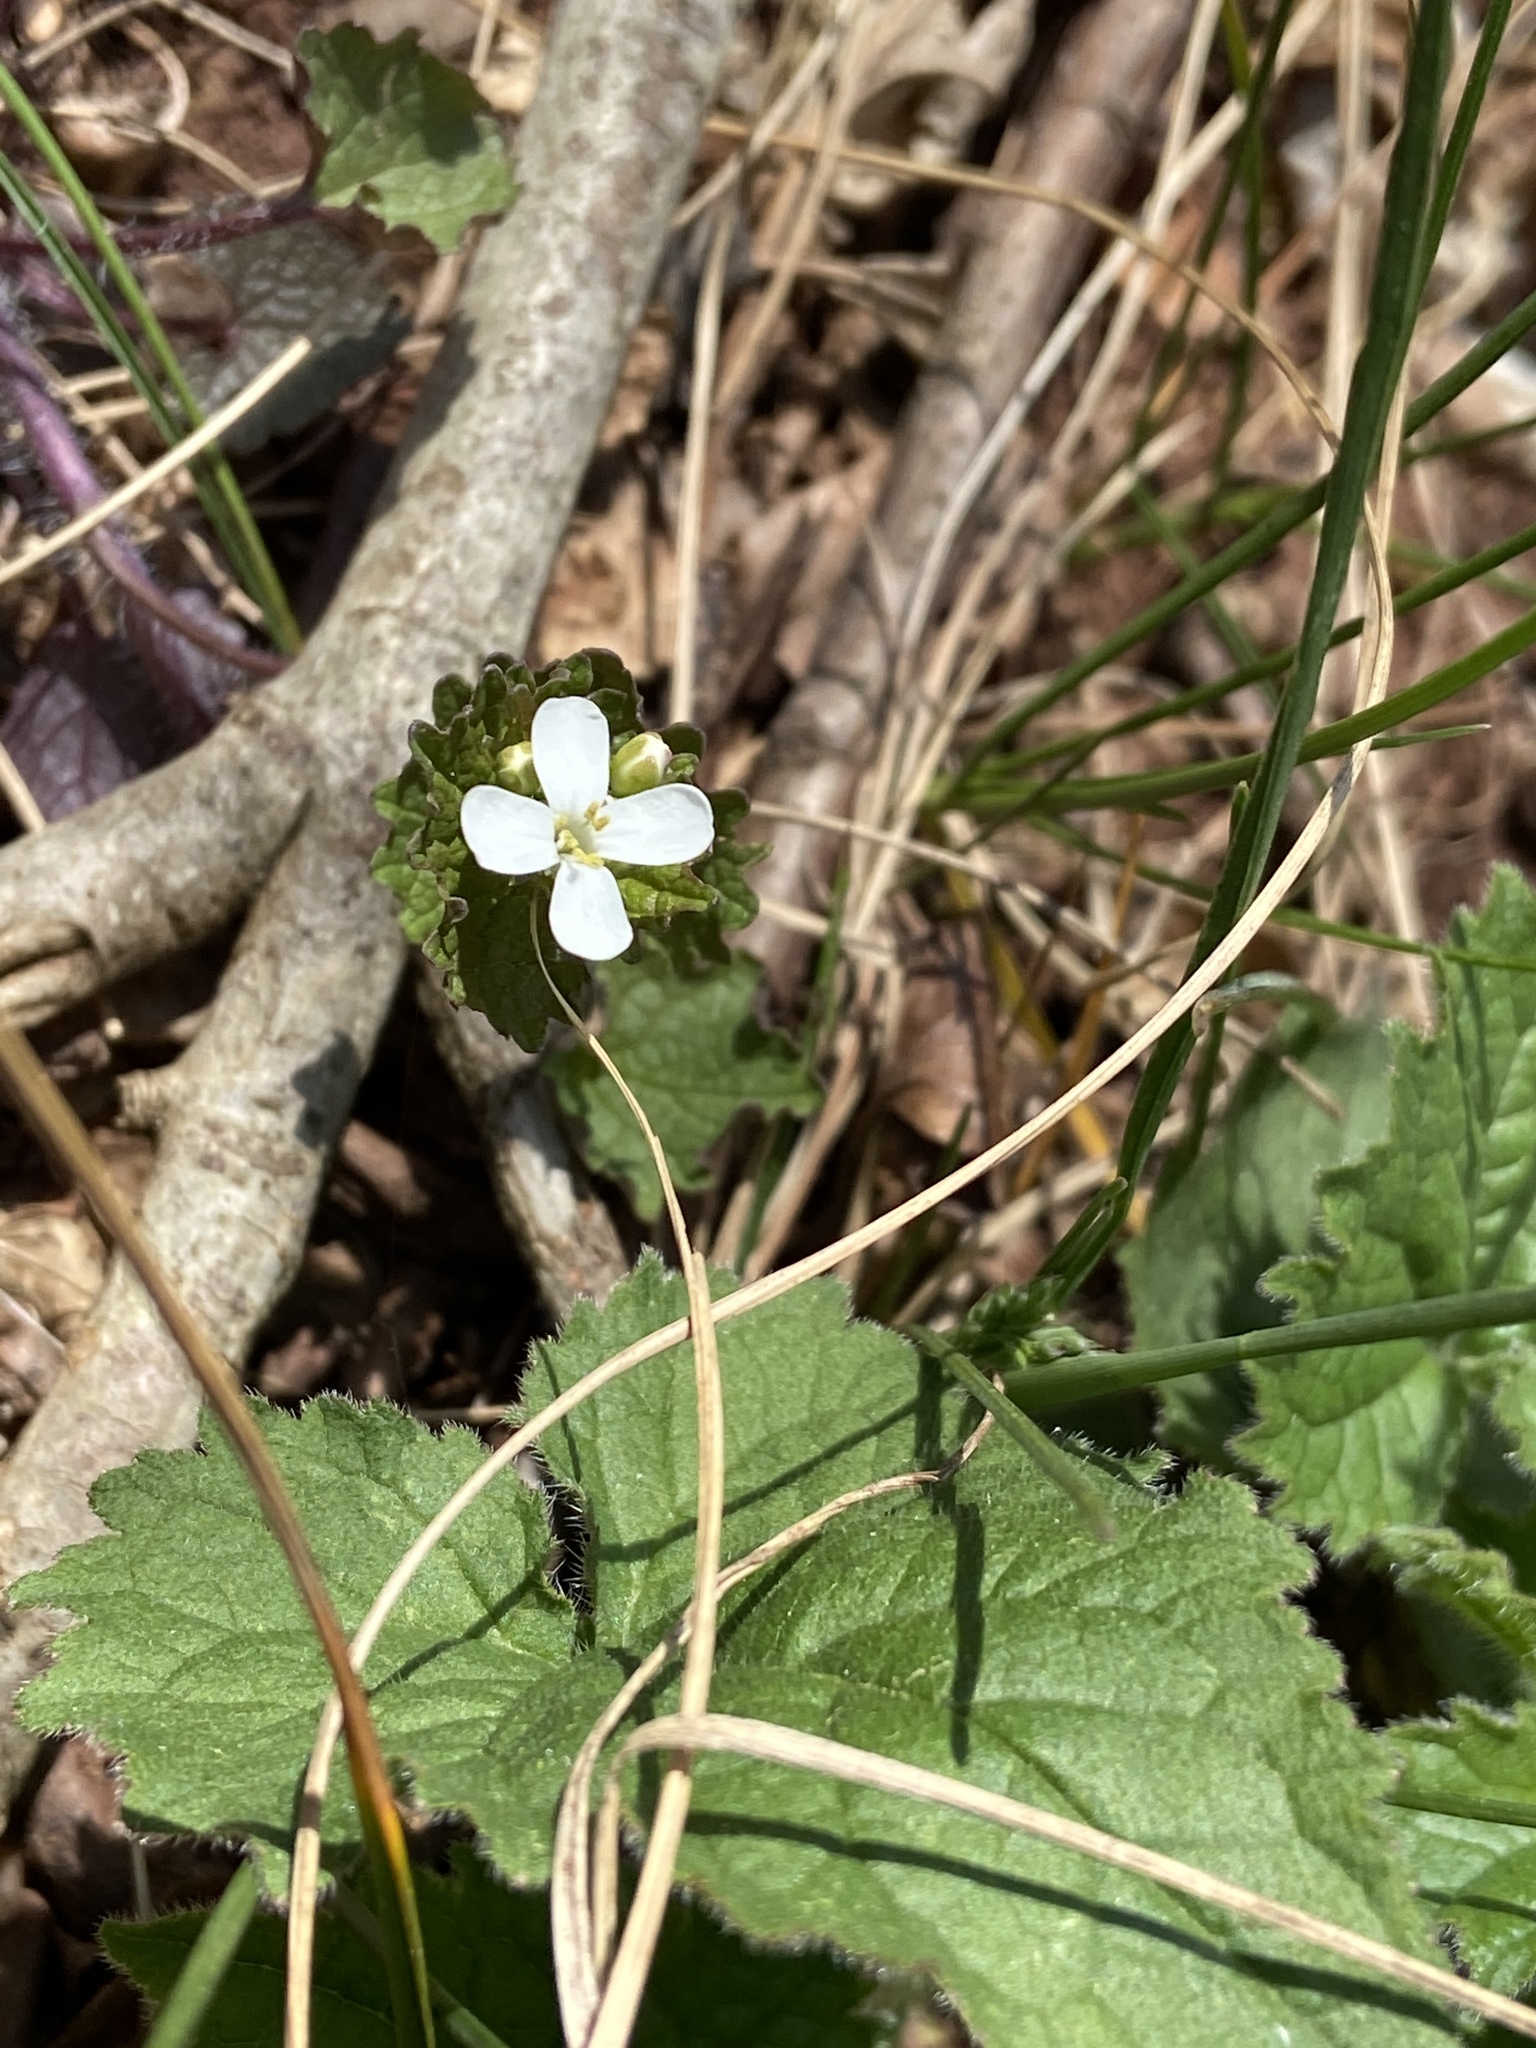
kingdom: Plantae
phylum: Tracheophyta
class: Magnoliopsida
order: Brassicales
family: Brassicaceae
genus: Alliaria
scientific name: Alliaria petiolata
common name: Garlic mustard
